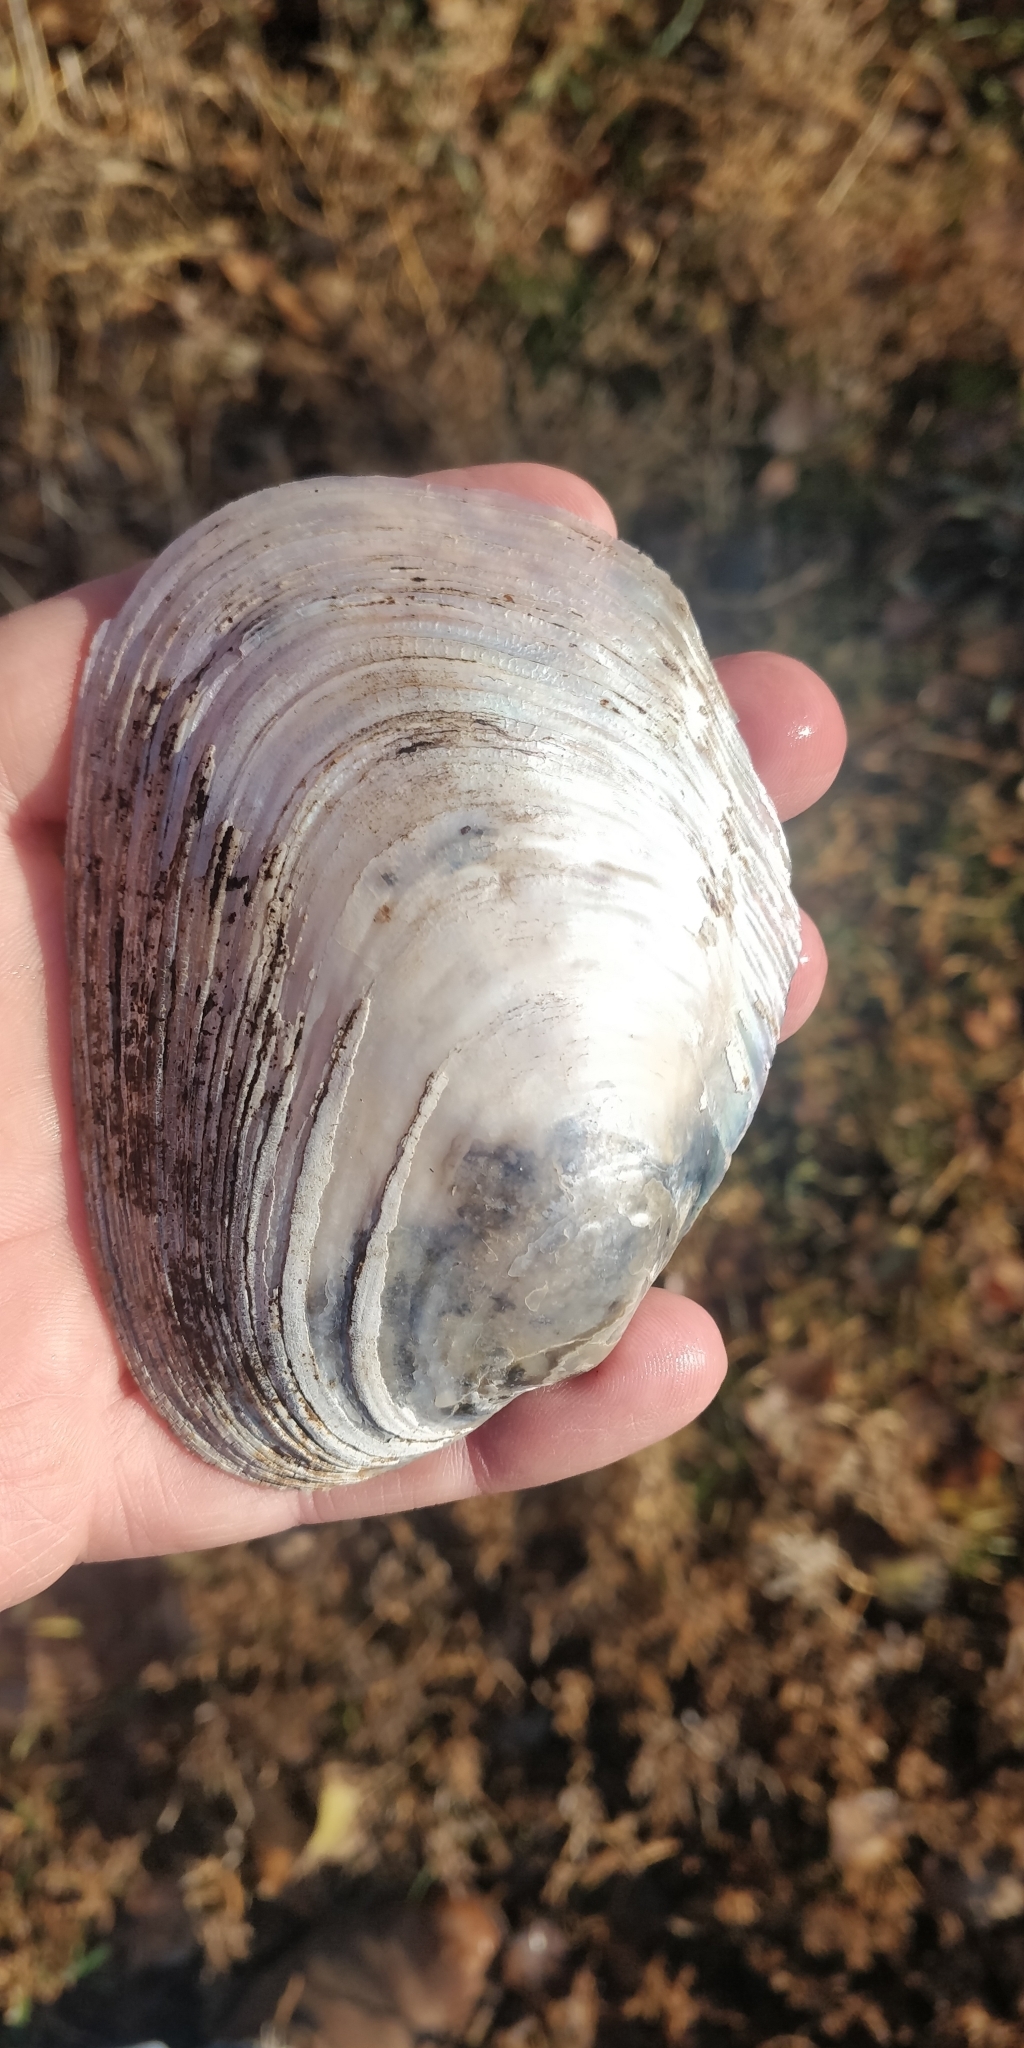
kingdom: Animalia
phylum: Mollusca
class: Bivalvia
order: Unionida
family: Unionidae
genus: Potamilus
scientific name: Potamilus alatus
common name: Pink heelsplitter
